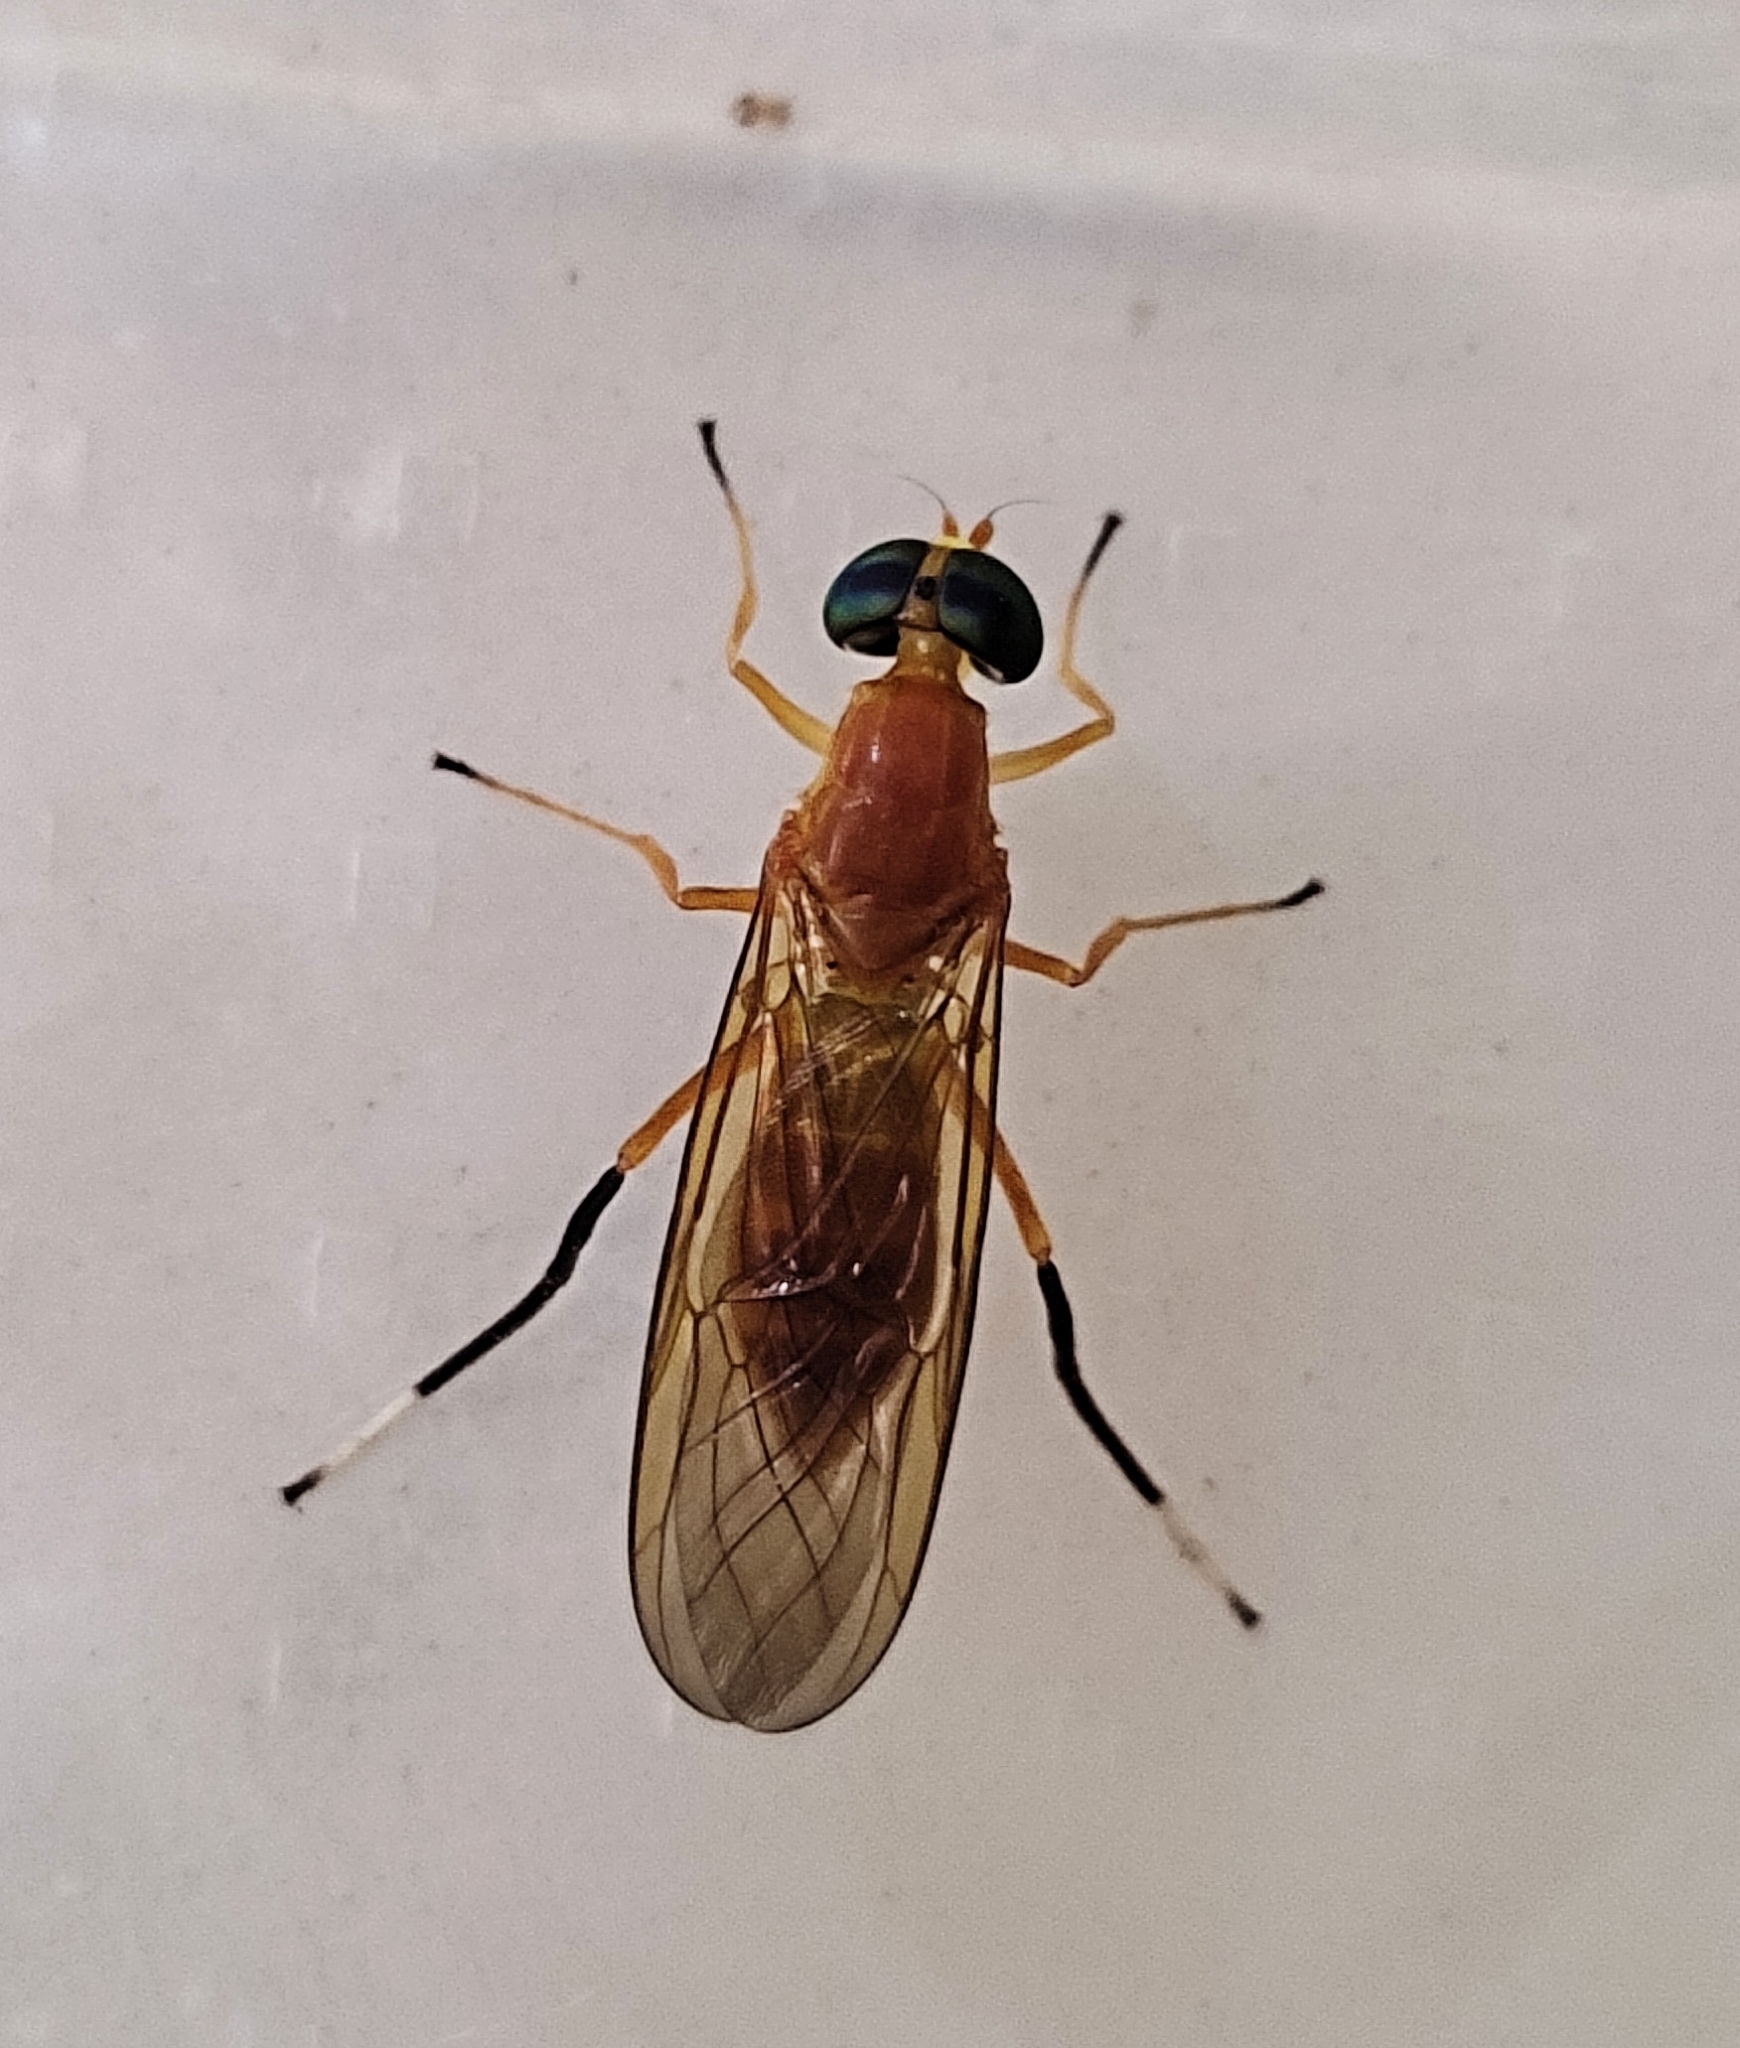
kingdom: Animalia
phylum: Arthropoda
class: Insecta
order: Diptera
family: Stratiomyidae
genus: Ptecticus
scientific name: Ptecticus testaceus
